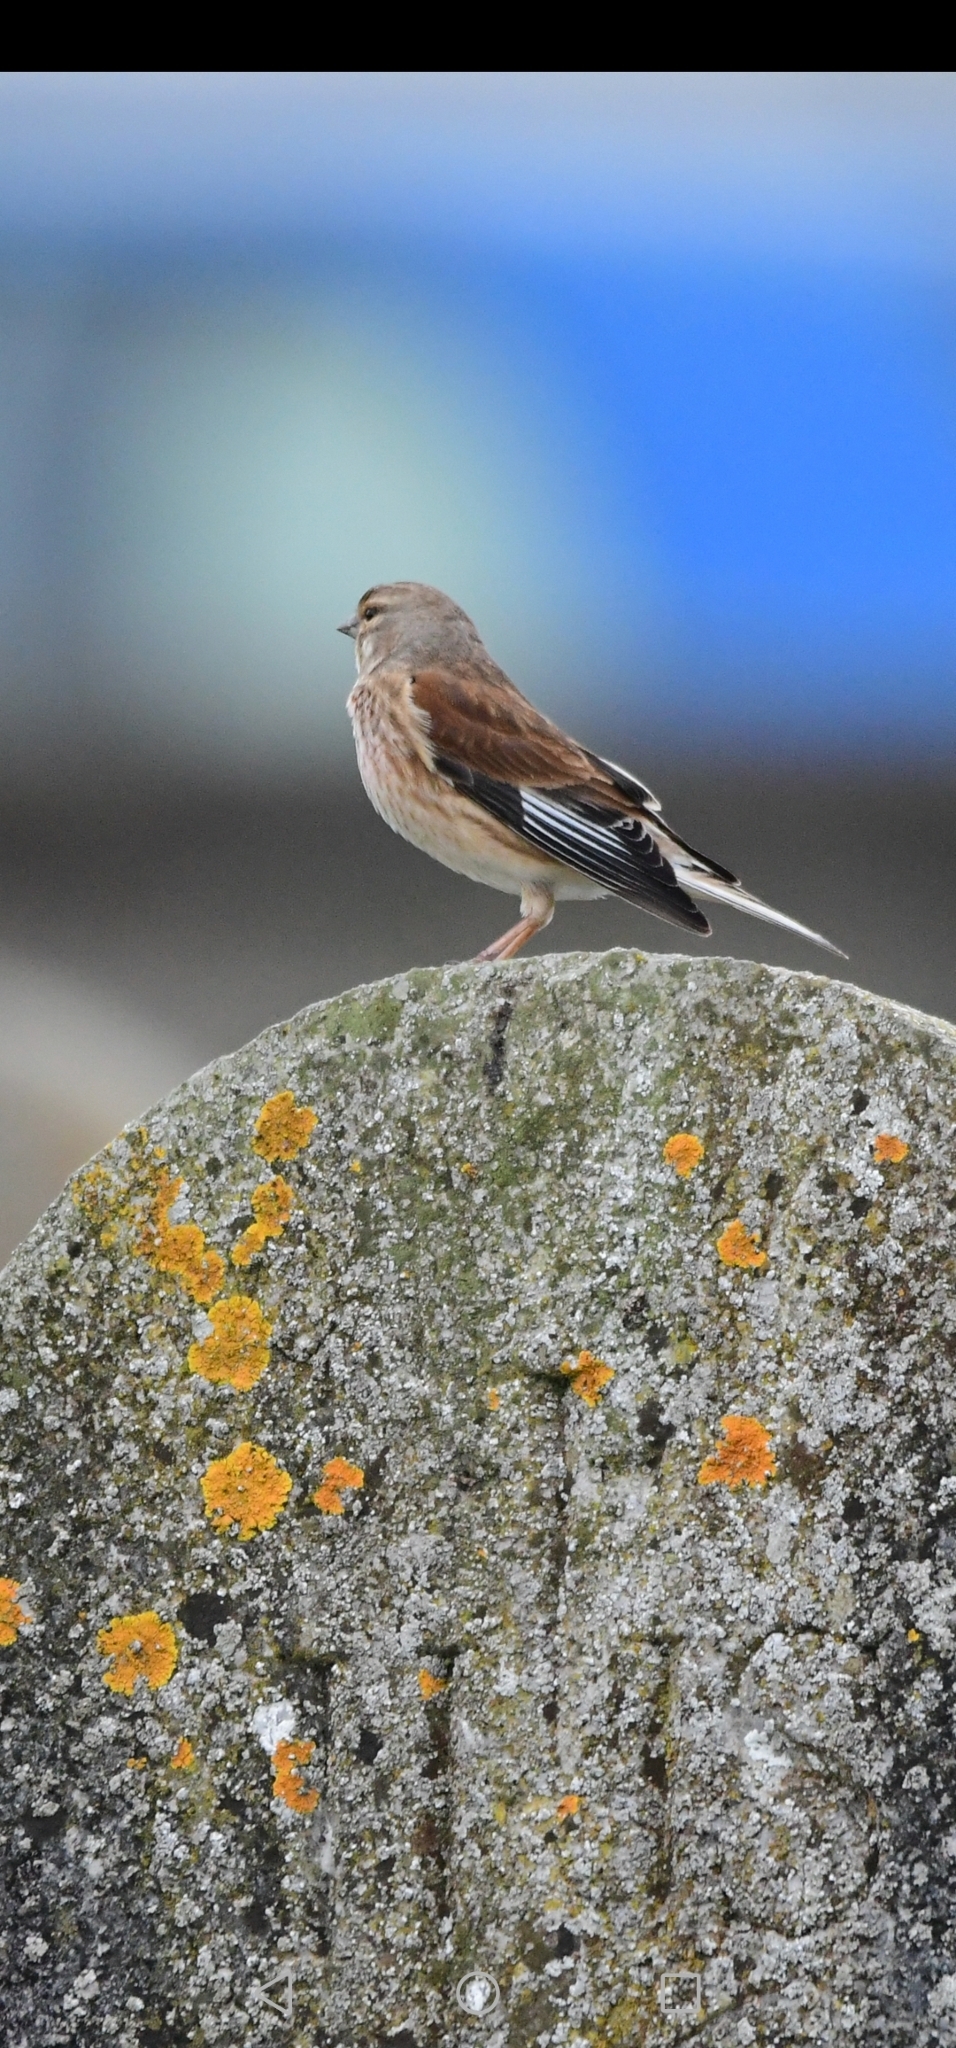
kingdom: Animalia
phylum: Chordata
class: Aves
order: Passeriformes
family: Fringillidae
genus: Linaria
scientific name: Linaria cannabina
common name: Common linnet
